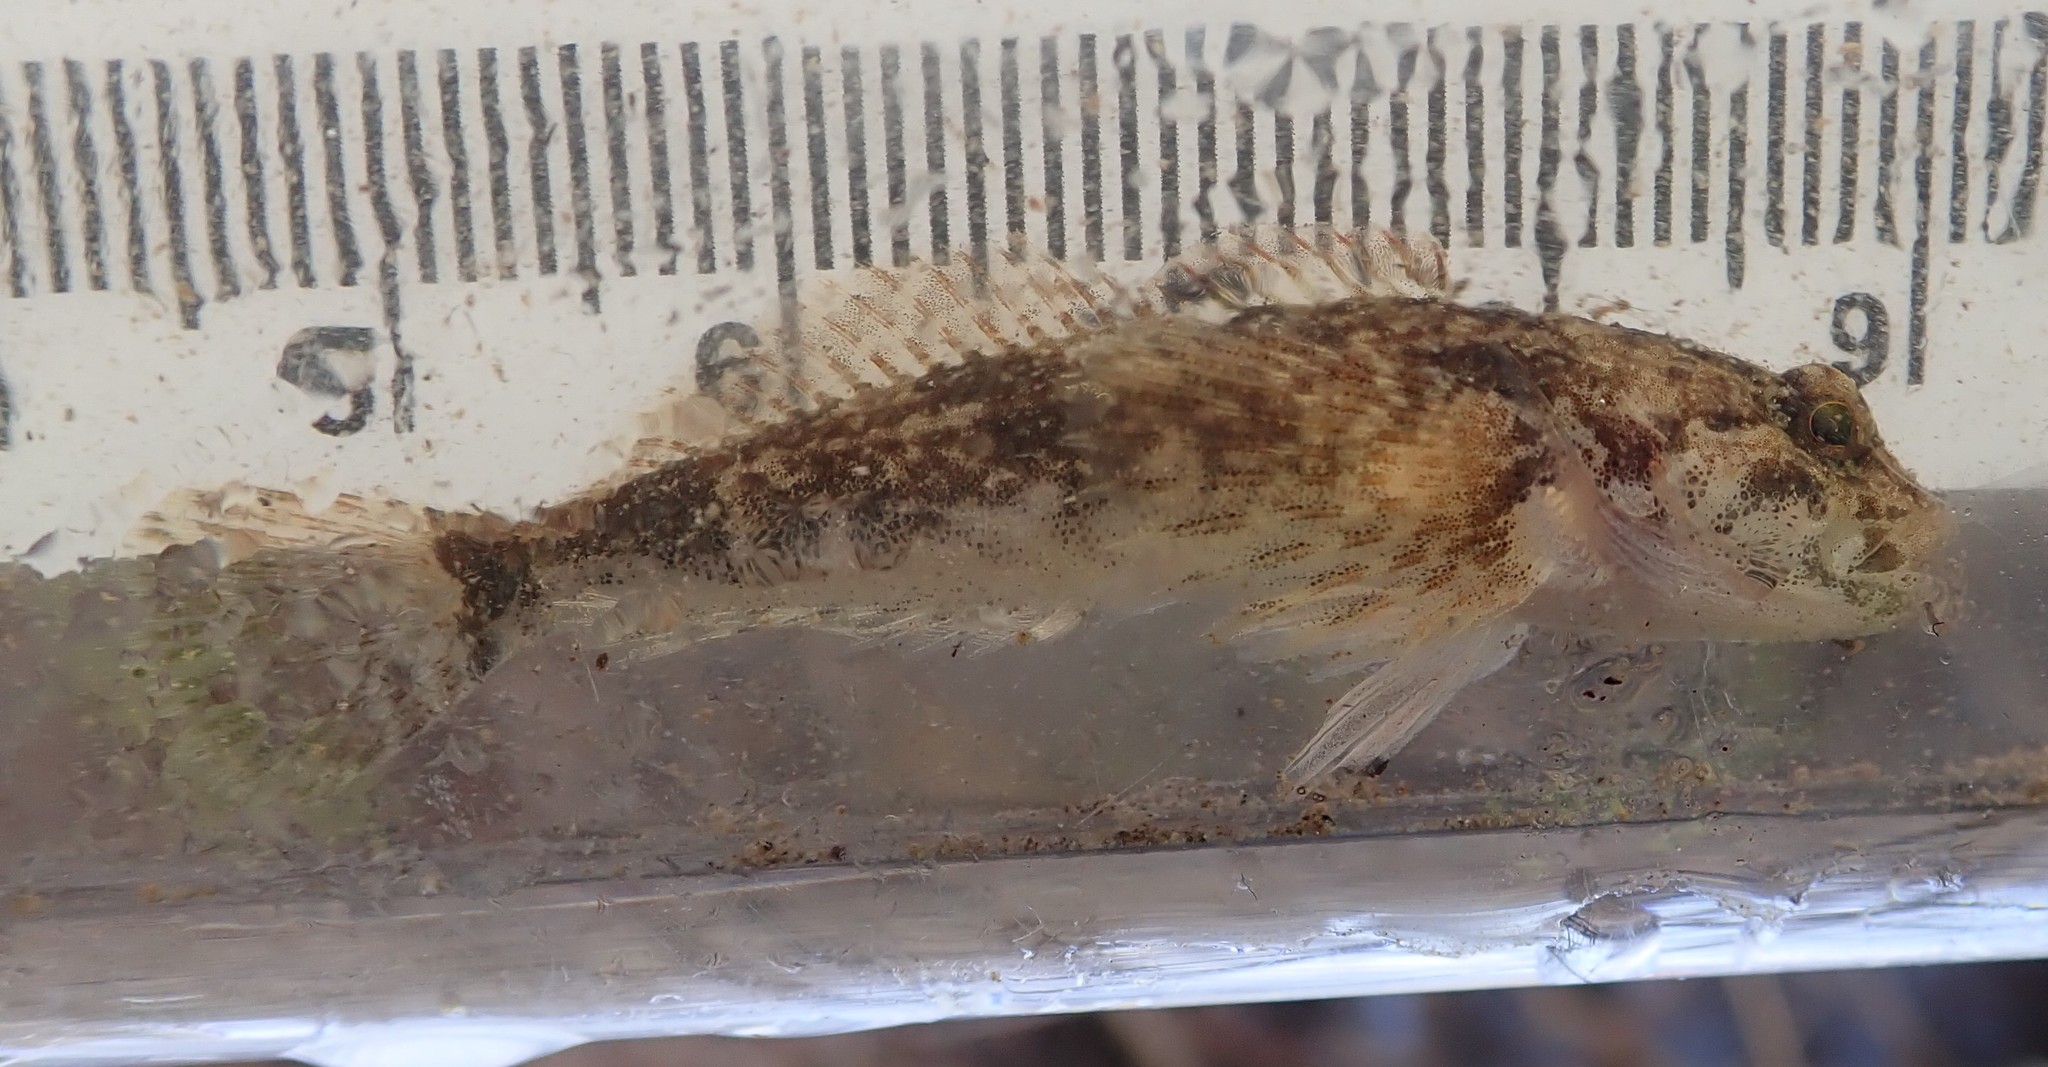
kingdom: Animalia
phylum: Chordata
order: Scorpaeniformes
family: Cottidae
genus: Cottus
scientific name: Cottus bairdii
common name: Mottled sculpin
